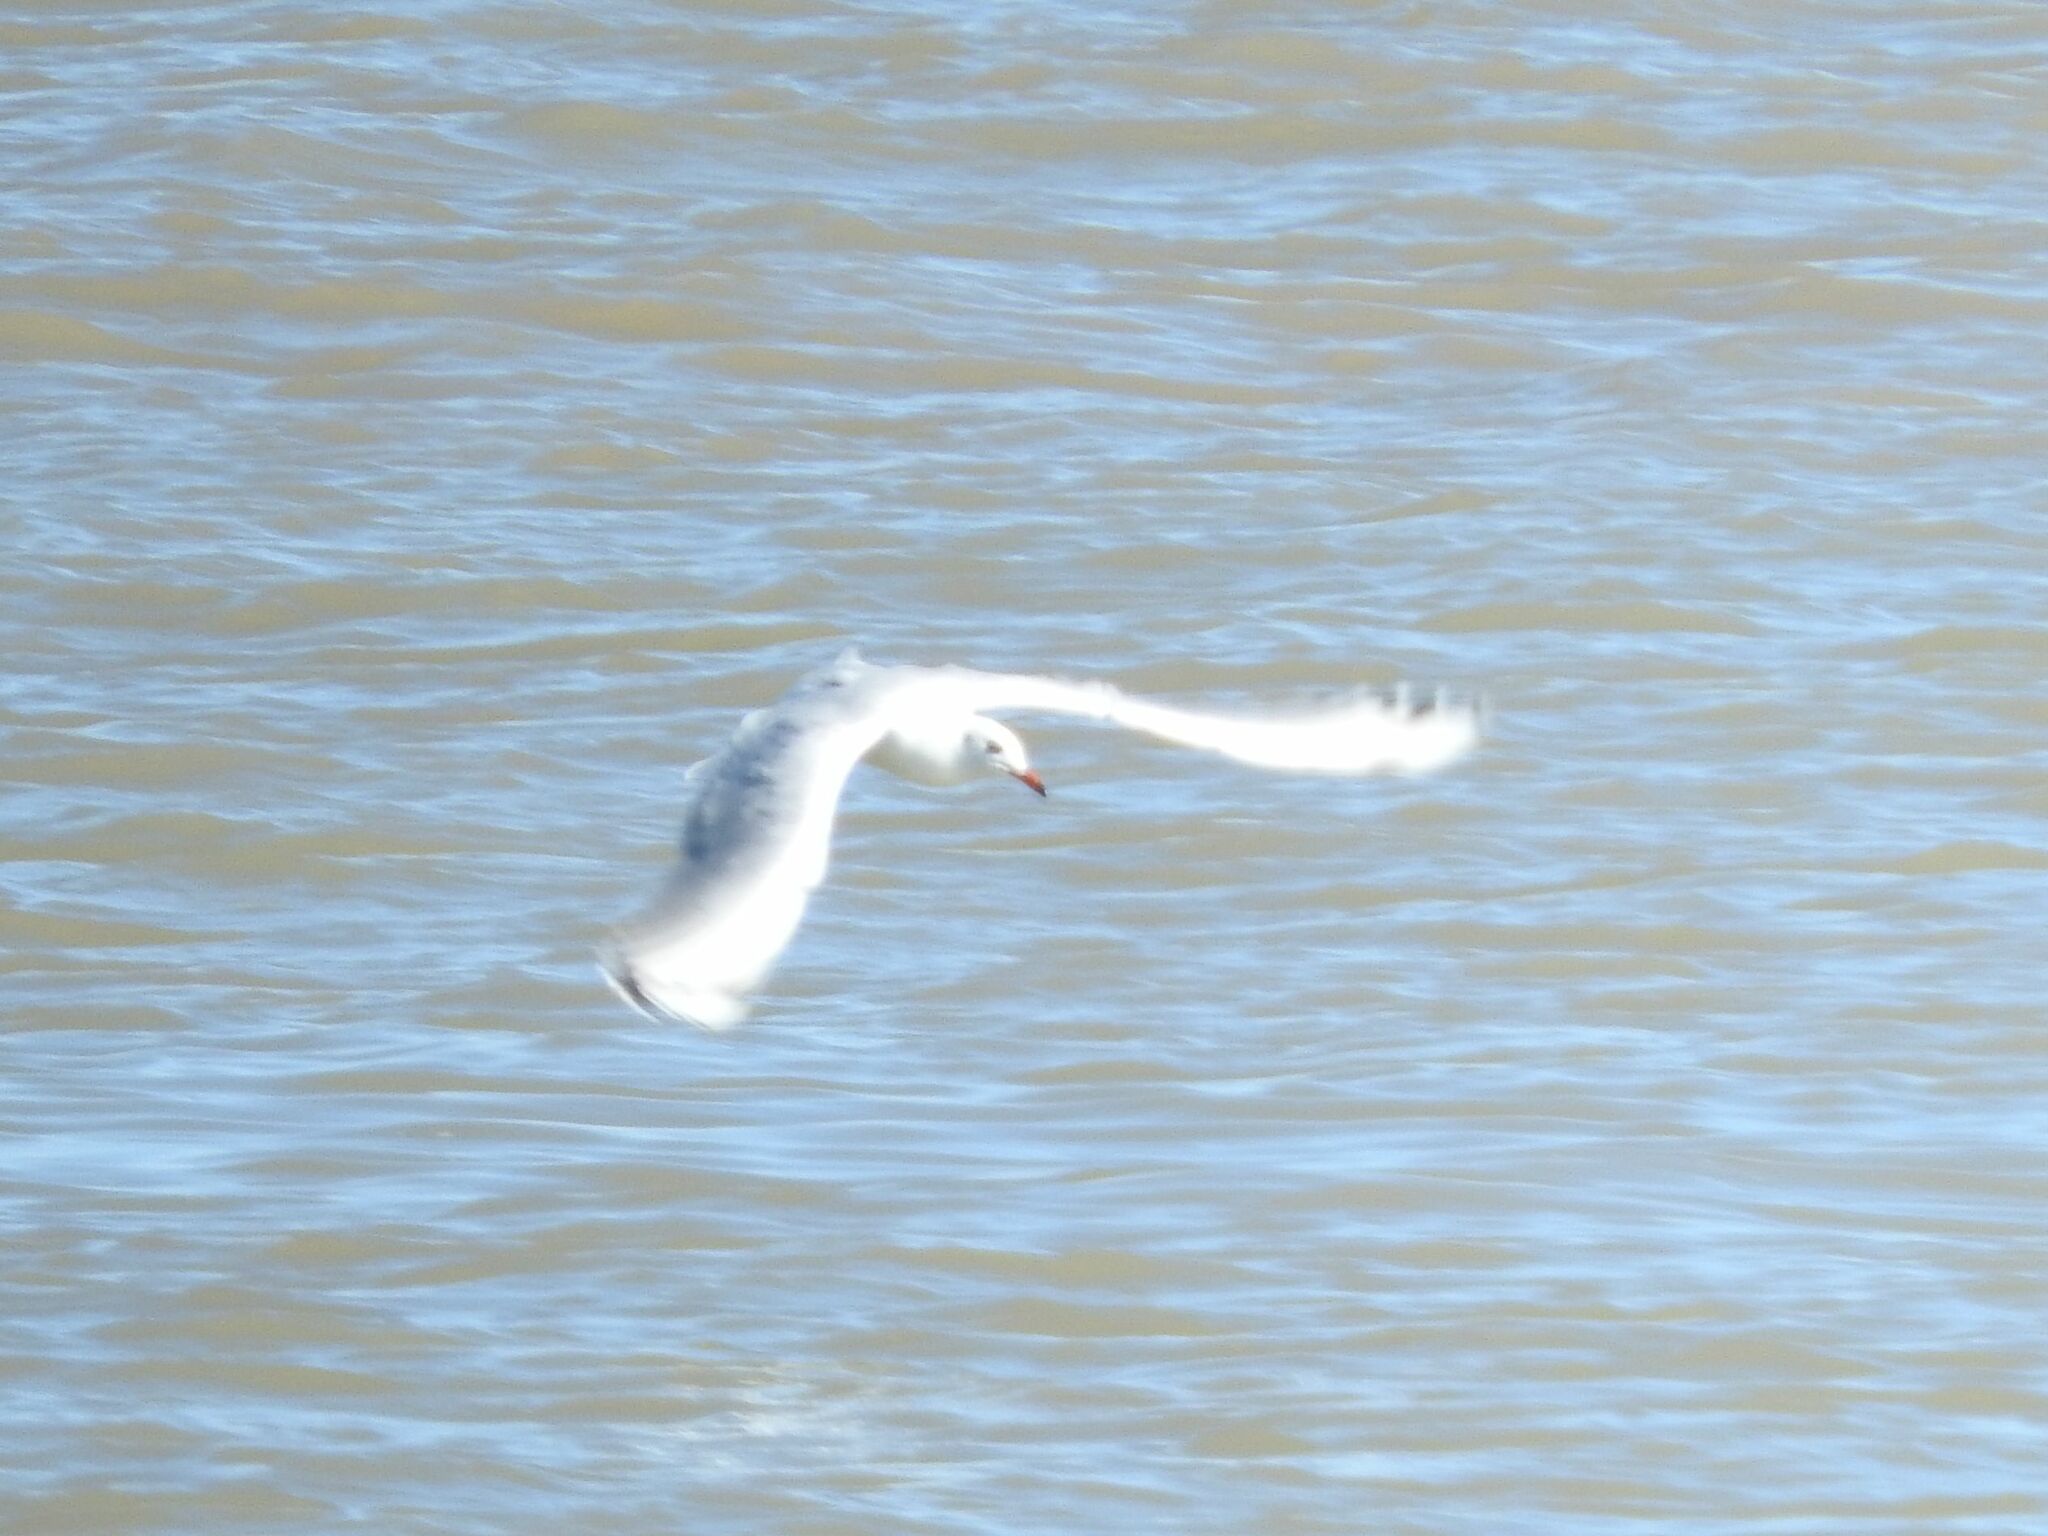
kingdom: Animalia
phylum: Chordata
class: Aves
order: Charadriiformes
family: Laridae
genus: Chroicocephalus
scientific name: Chroicocephalus maculipennis
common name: Brown-hooded gull
